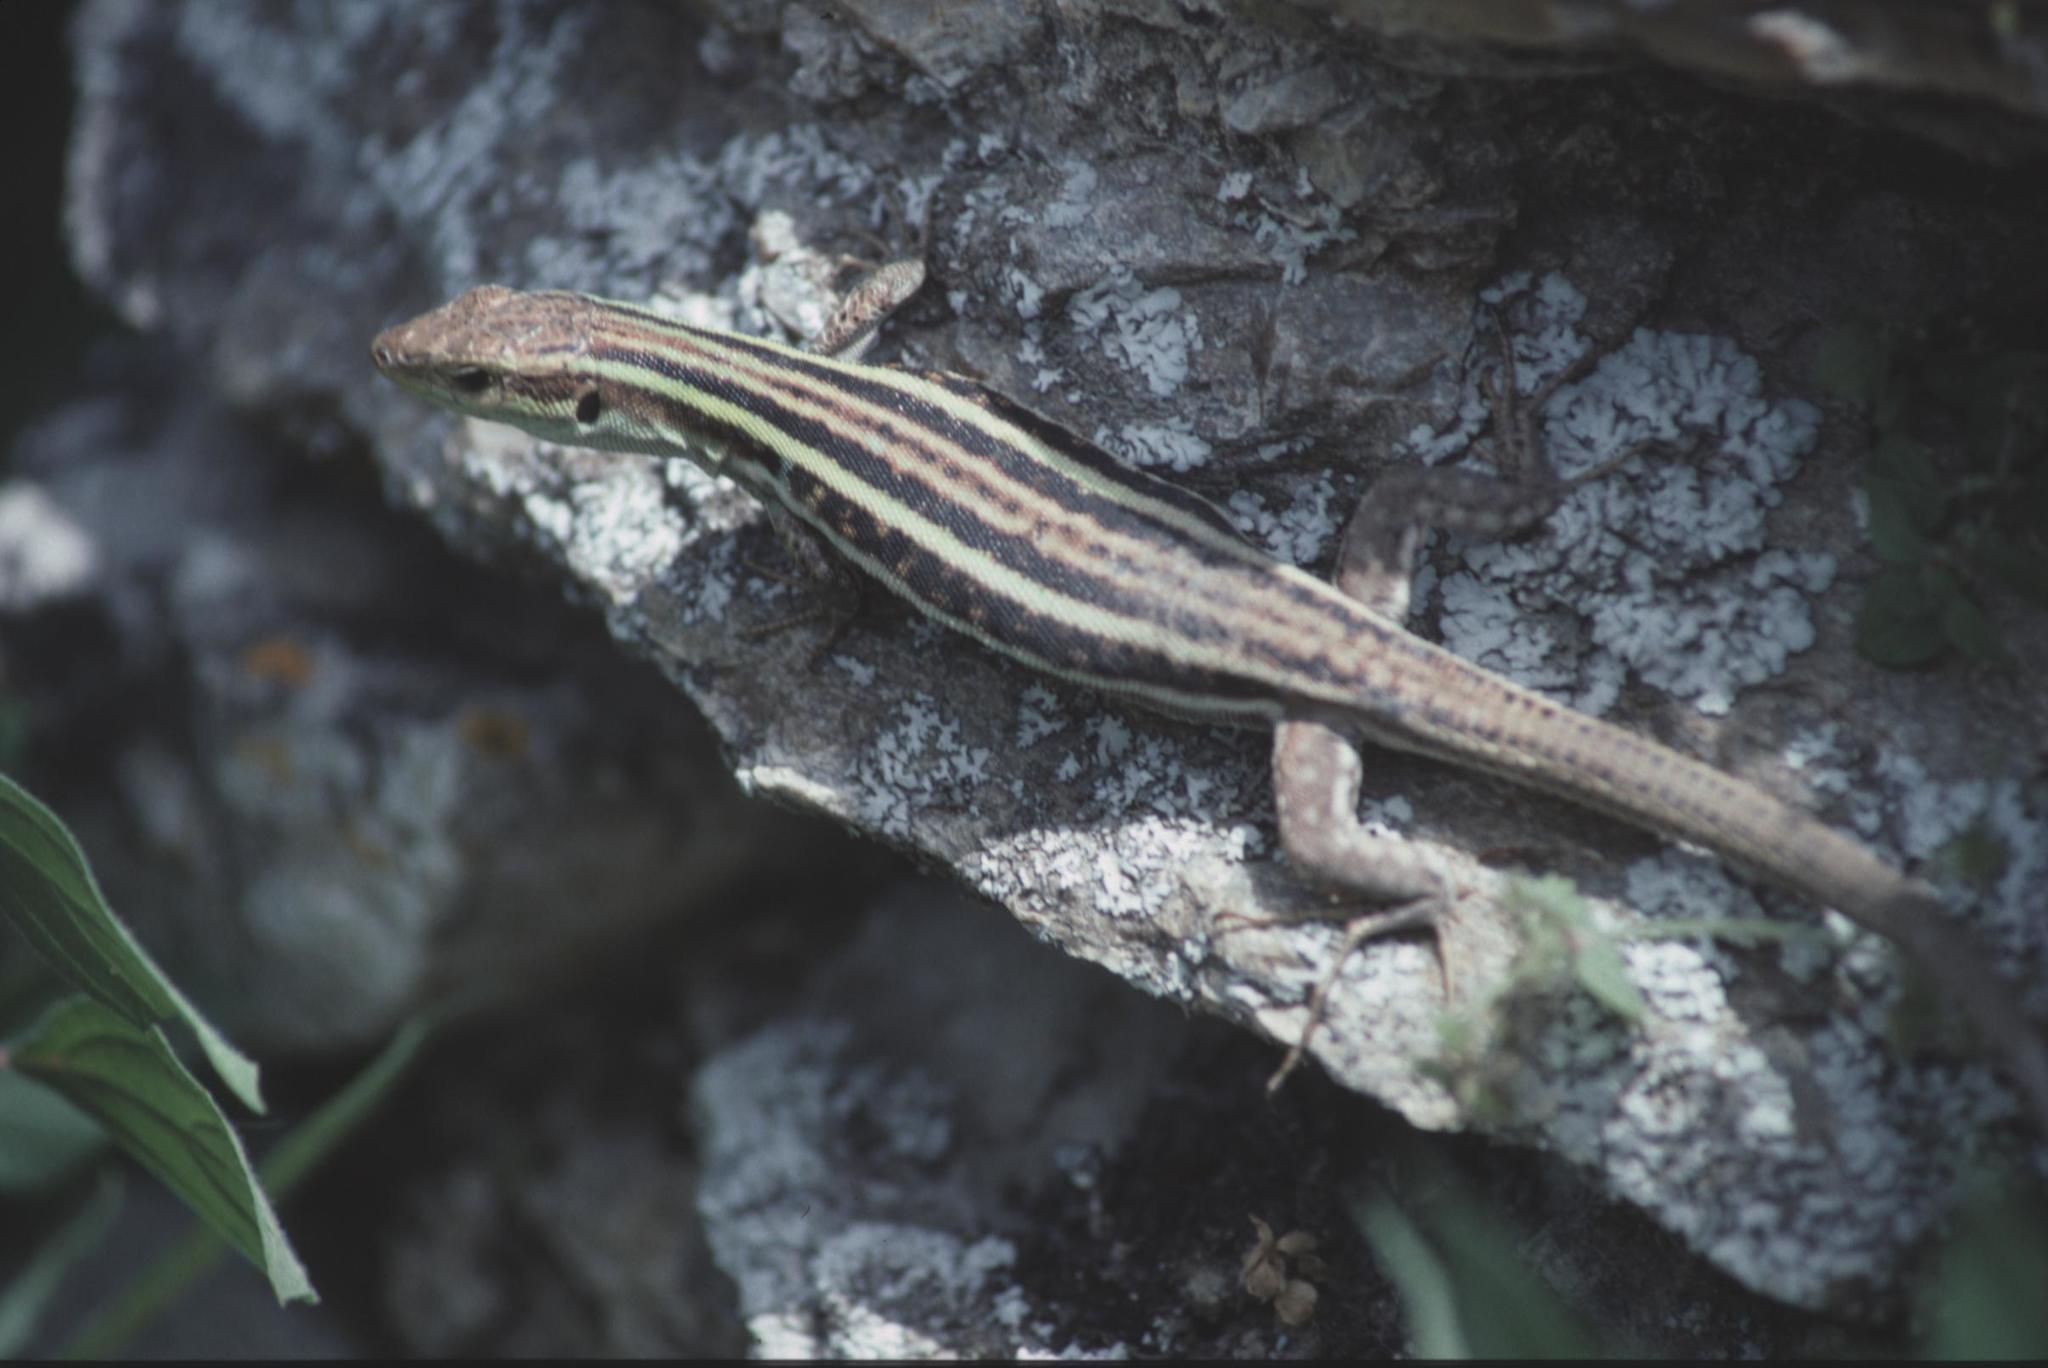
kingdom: Animalia
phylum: Chordata
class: Squamata
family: Lacertidae
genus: Podarcis
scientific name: Podarcis peloponnesiacus
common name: Peloponnese wall lizard
